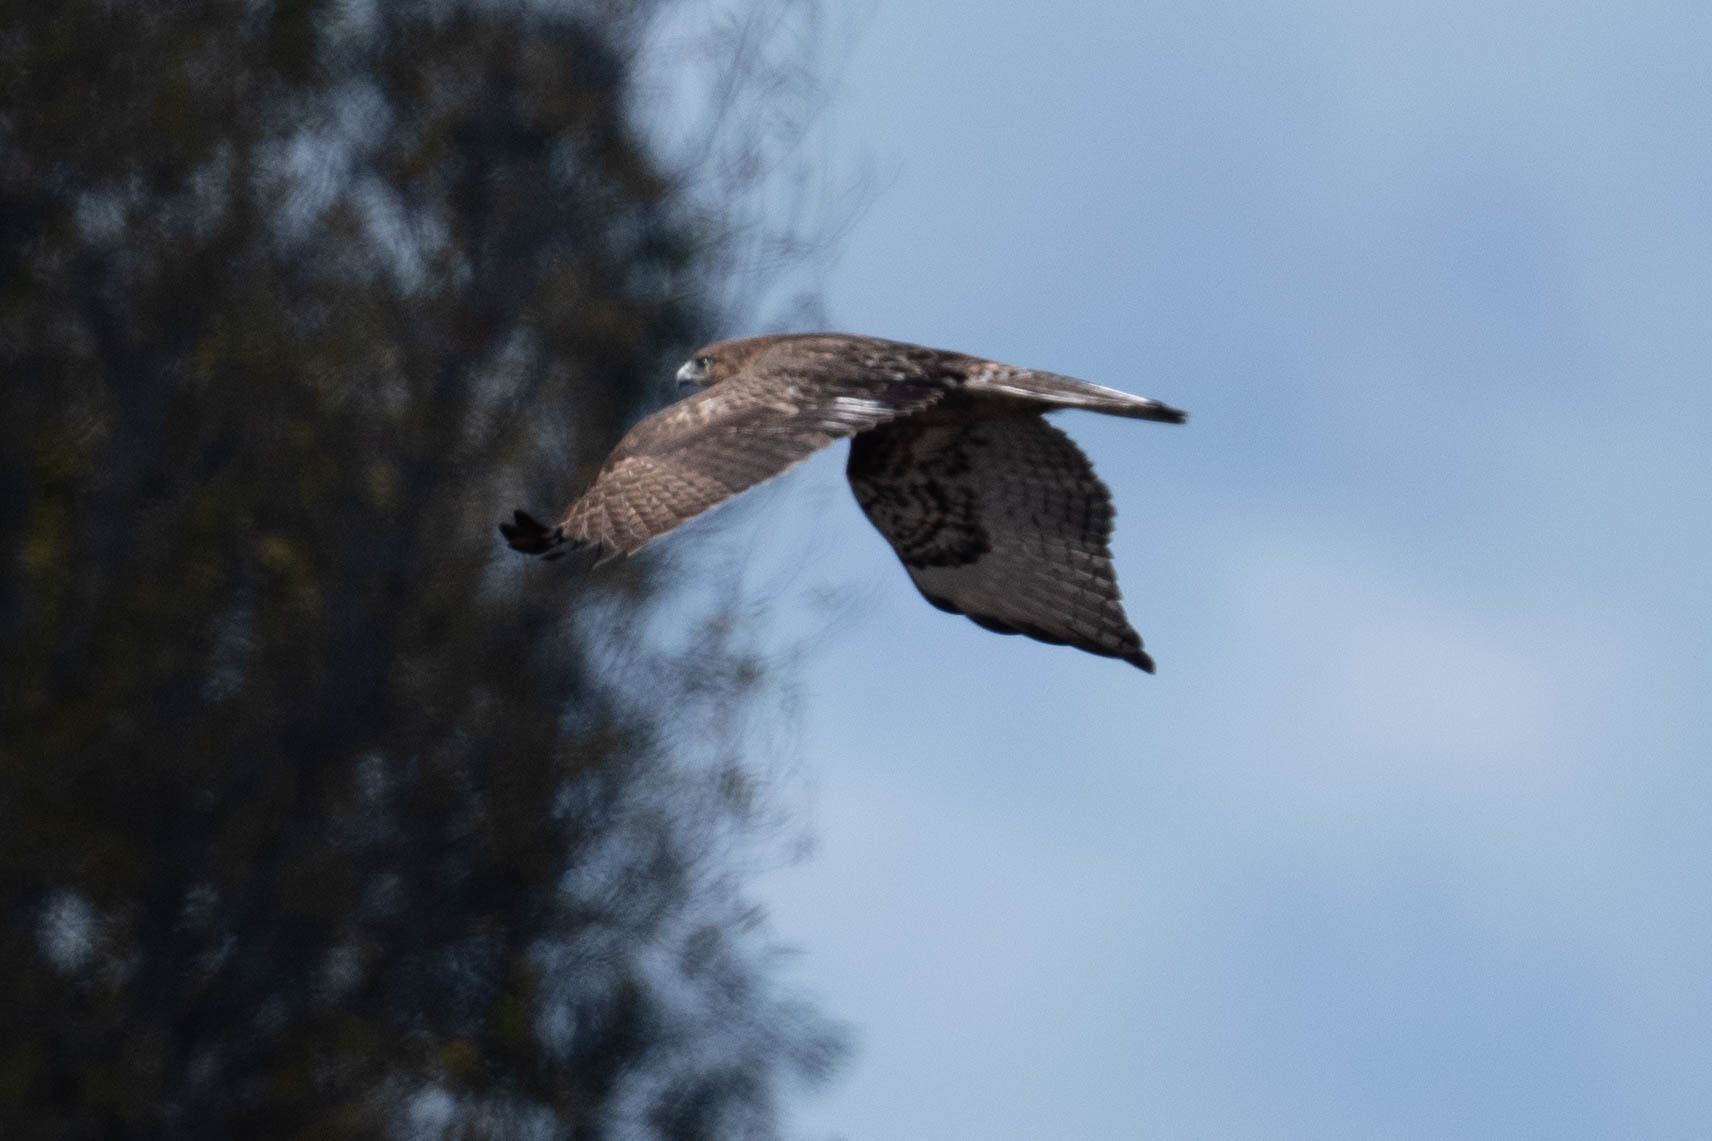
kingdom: Animalia
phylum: Chordata
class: Aves
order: Accipitriformes
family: Accipitridae
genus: Buteo
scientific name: Buteo jamaicensis
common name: Red-tailed hawk
